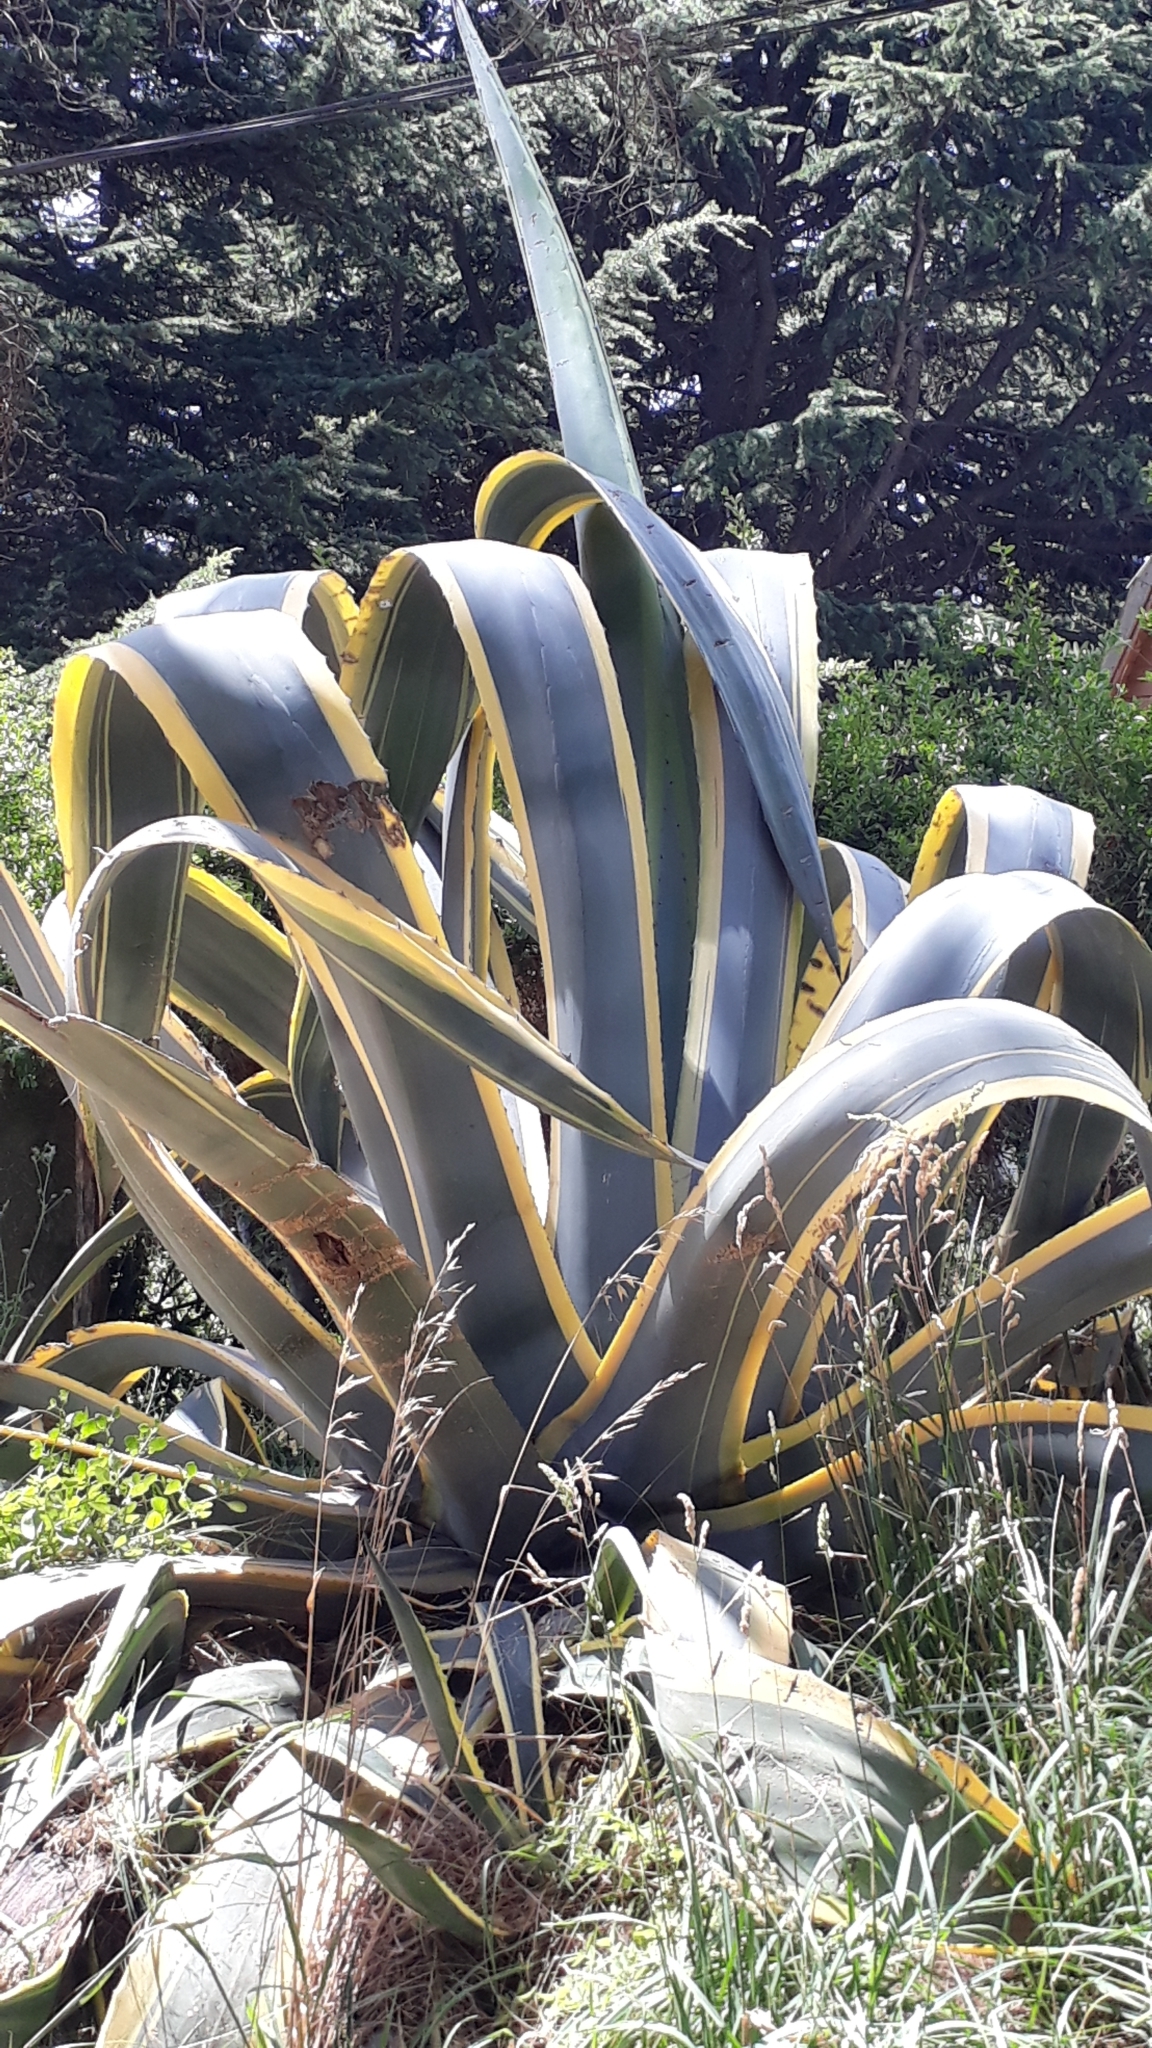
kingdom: Plantae
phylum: Tracheophyta
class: Liliopsida
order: Asparagales
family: Asparagaceae
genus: Agave
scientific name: Agave americana
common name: Centuryplant
